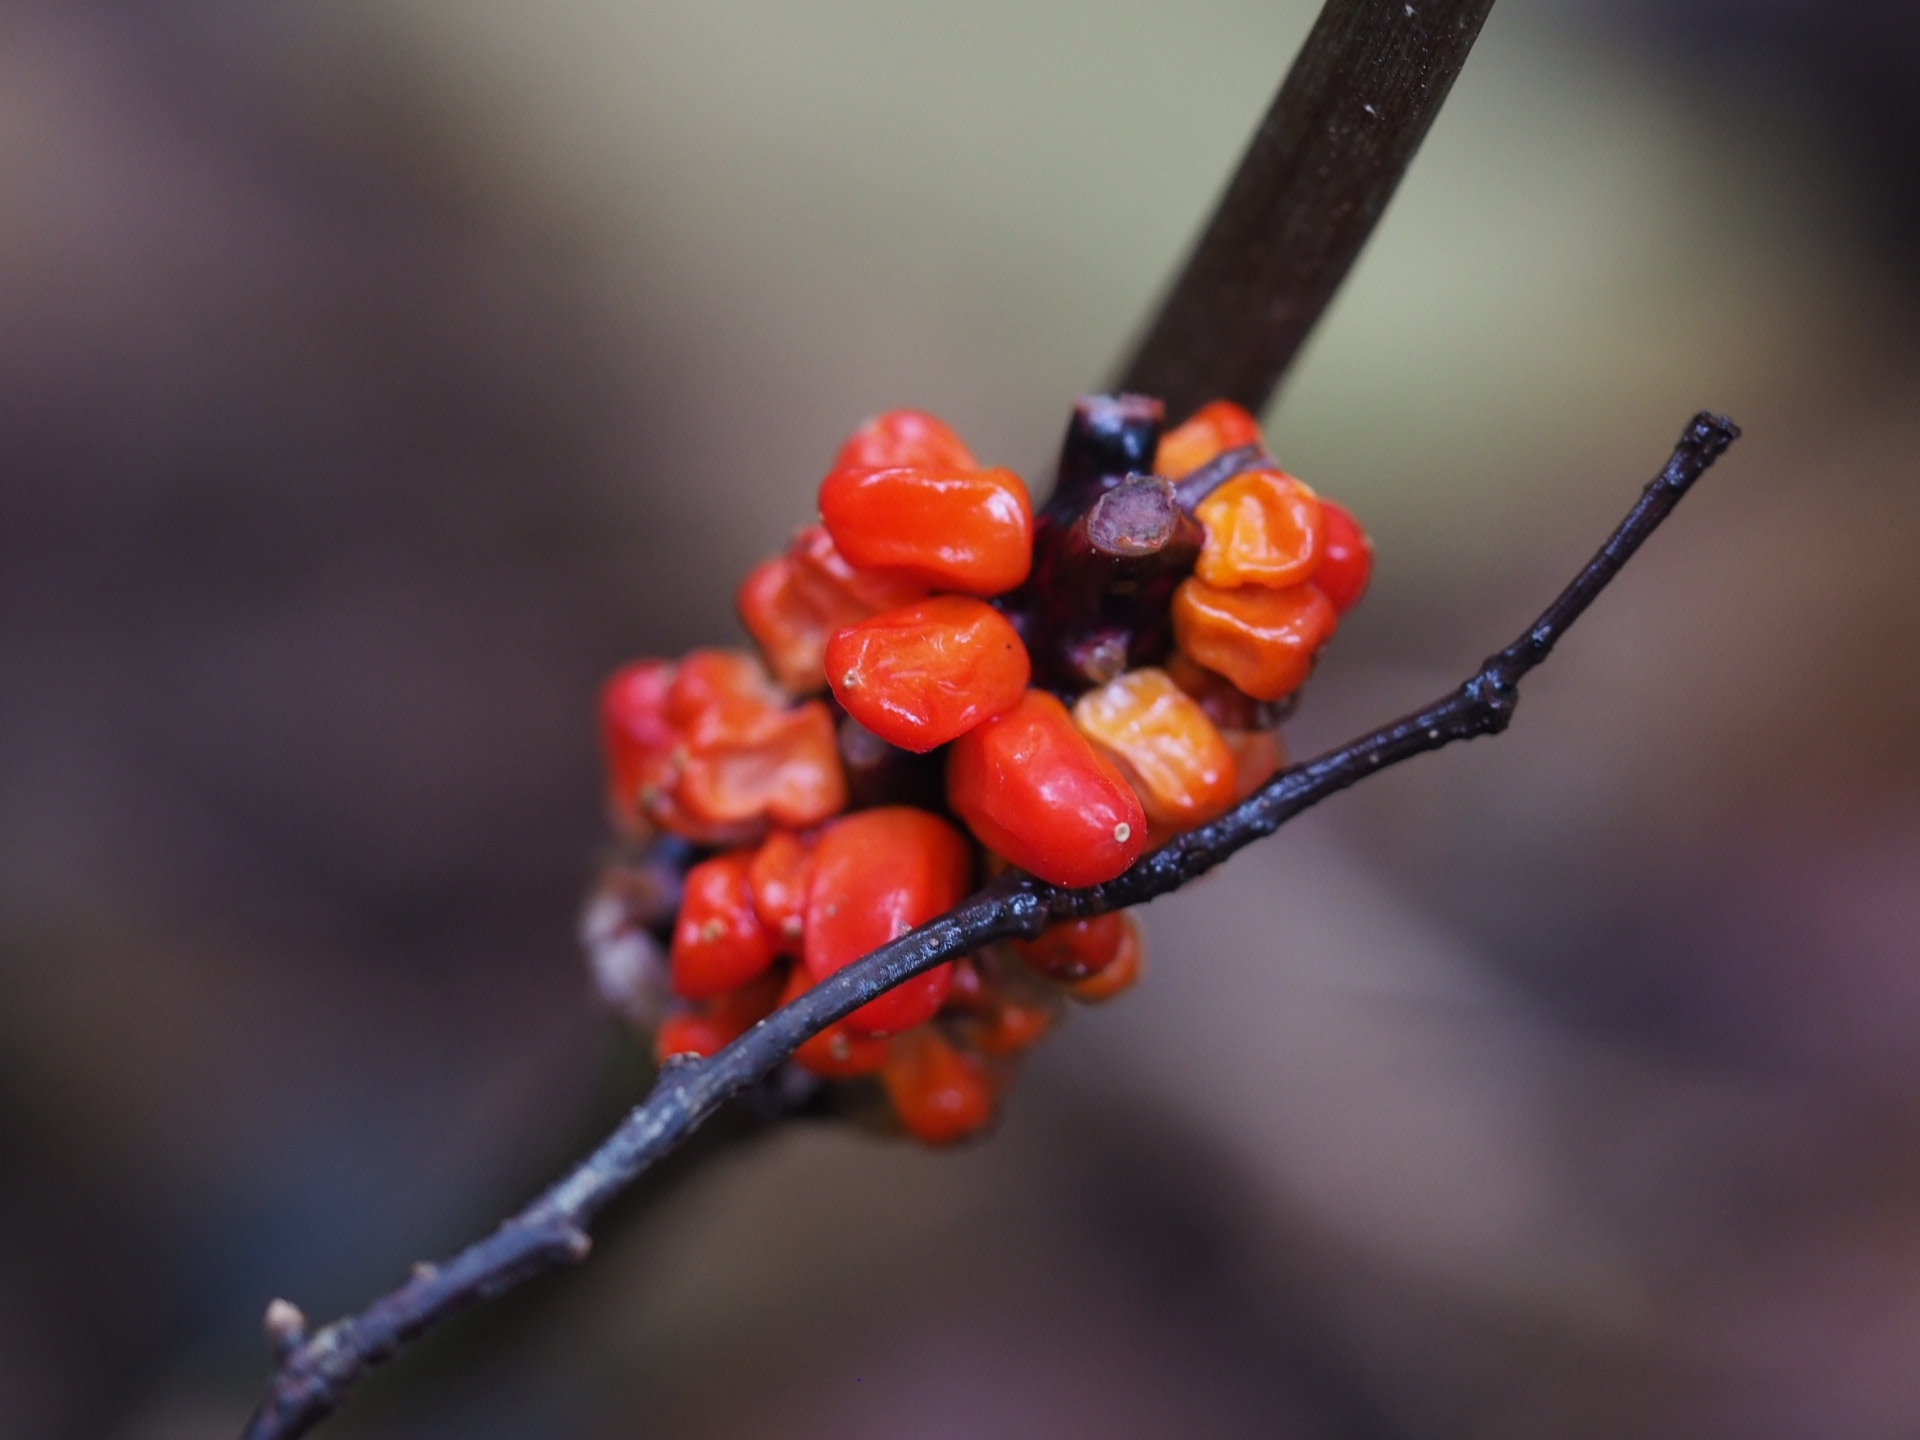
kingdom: Plantae
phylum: Tracheophyta
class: Liliopsida
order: Alismatales
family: Araceae
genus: Arisaema
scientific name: Arisaema triphyllum
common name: Jack-in-the-pulpit
